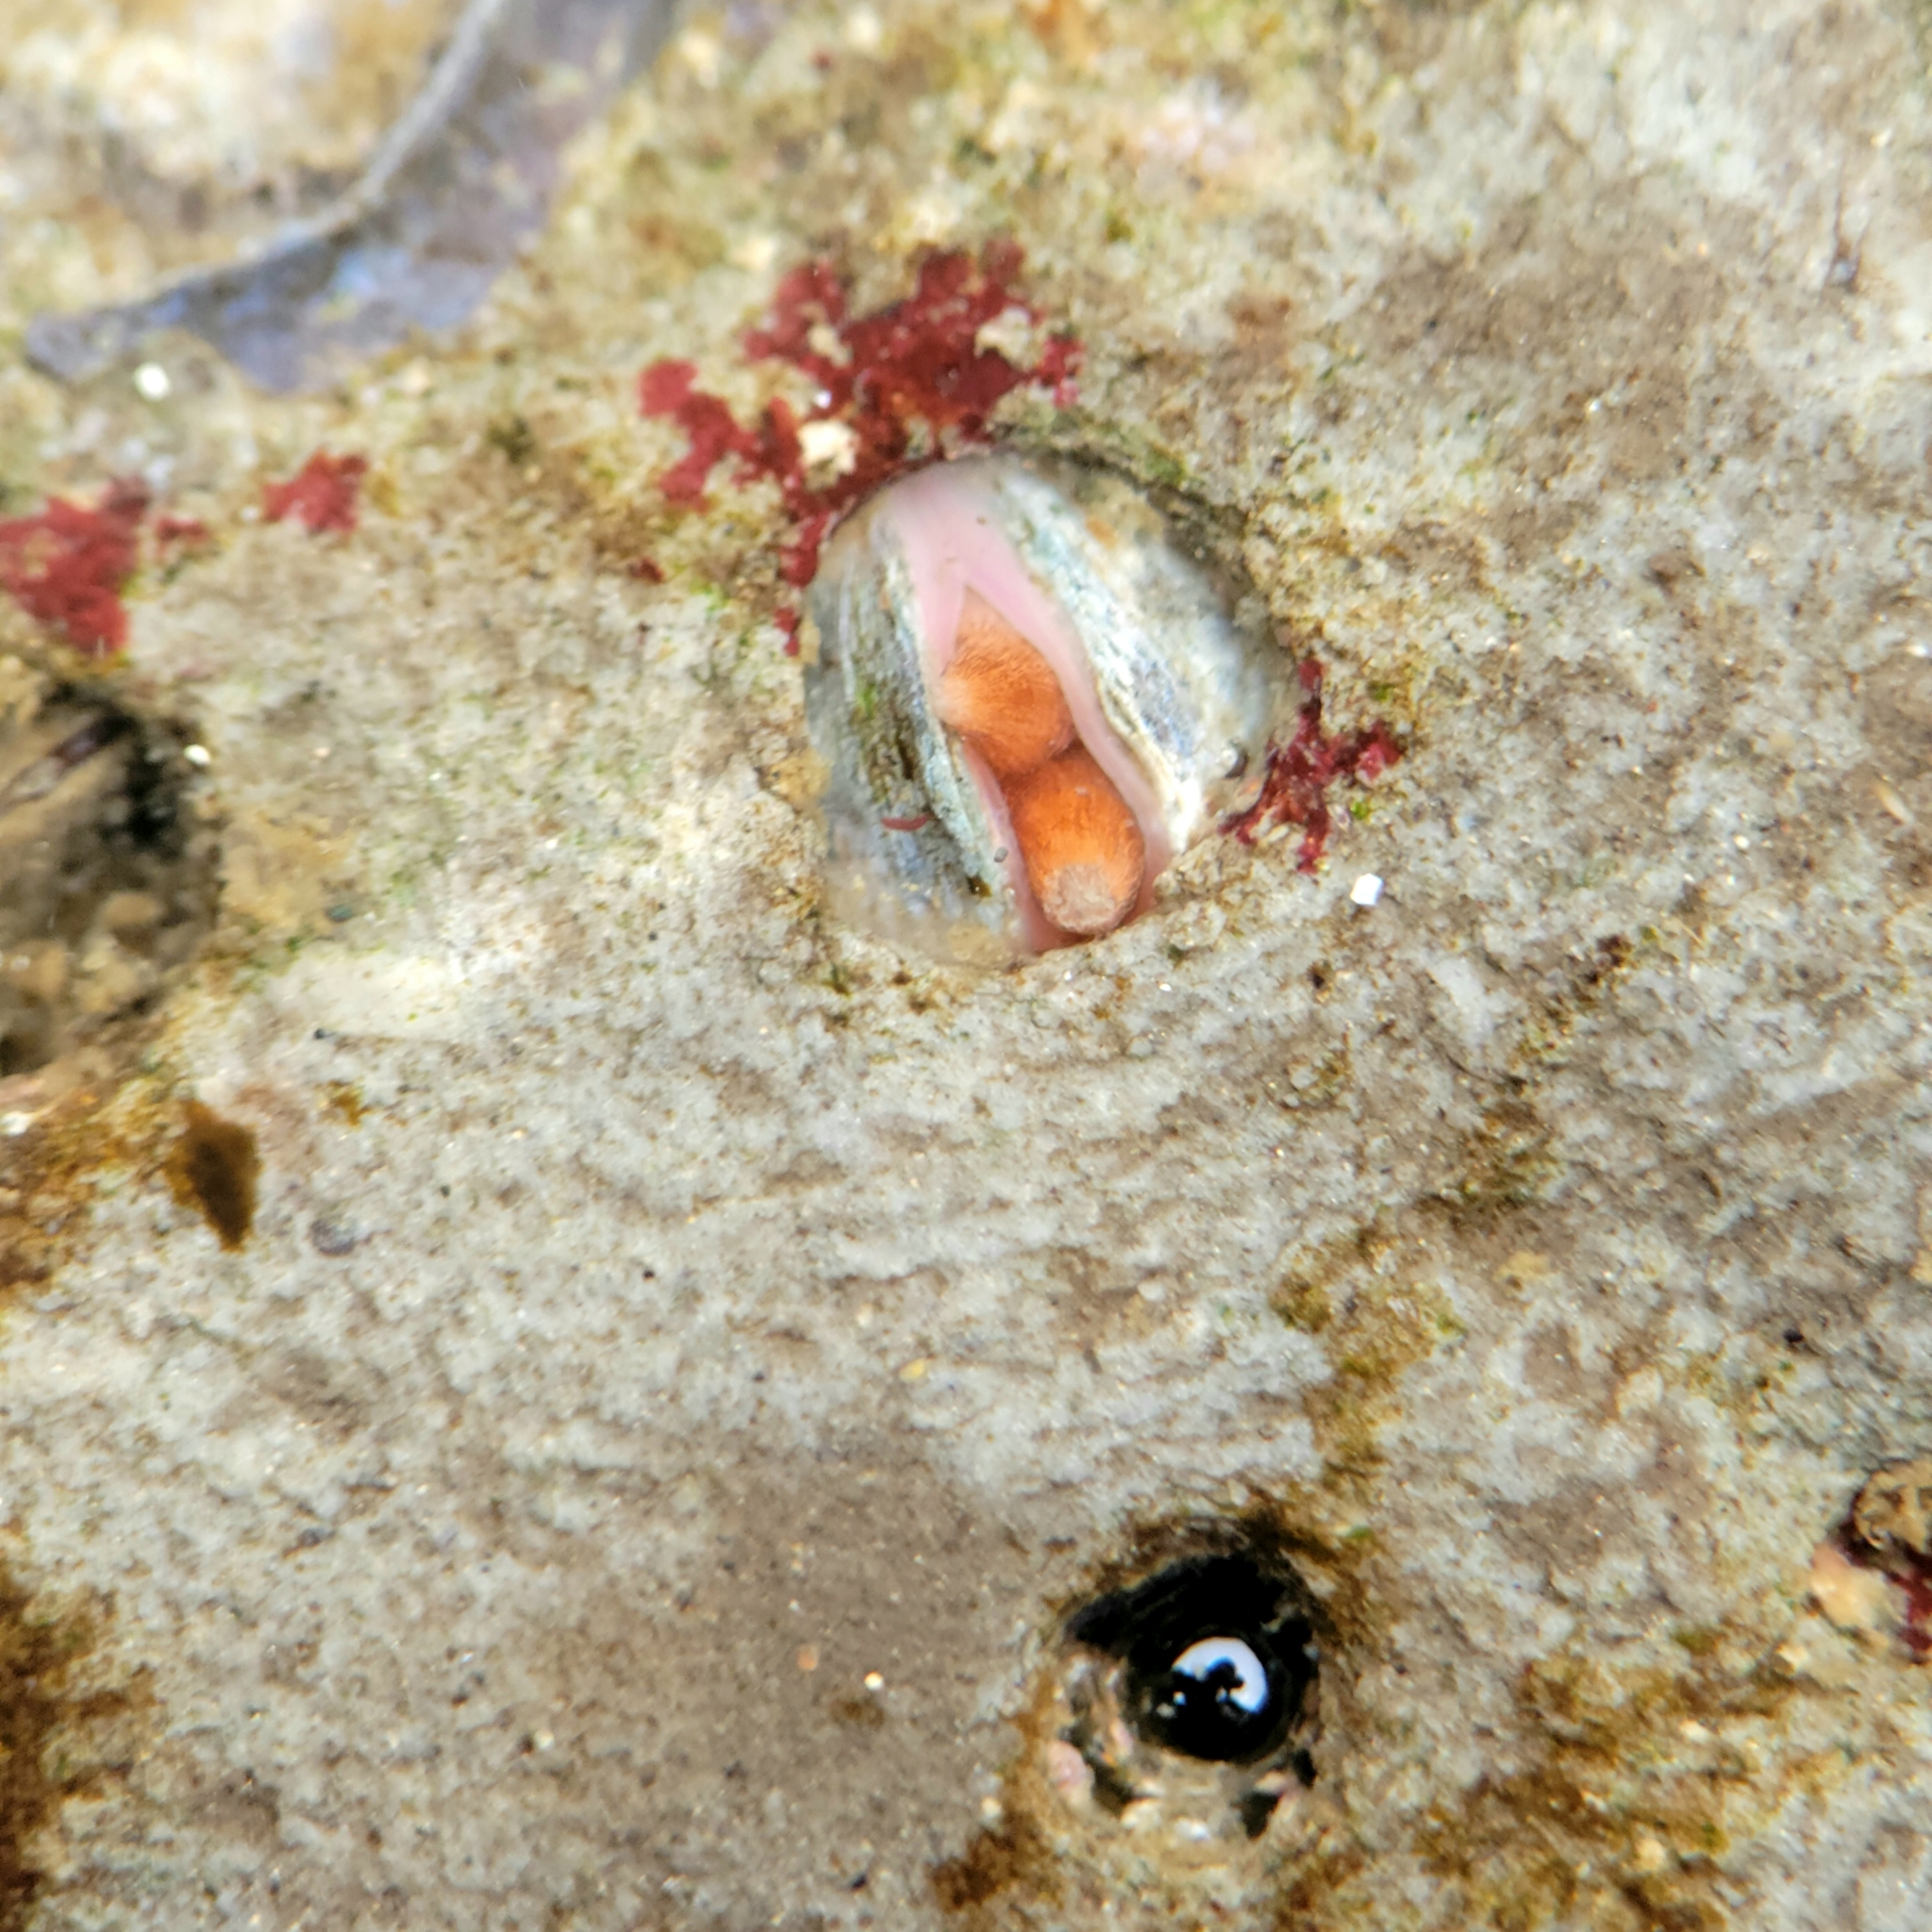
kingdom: Animalia
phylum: Mollusca
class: Bivalvia
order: Venerida
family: Veneridae
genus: Petricola
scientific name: Petricola carditoides
